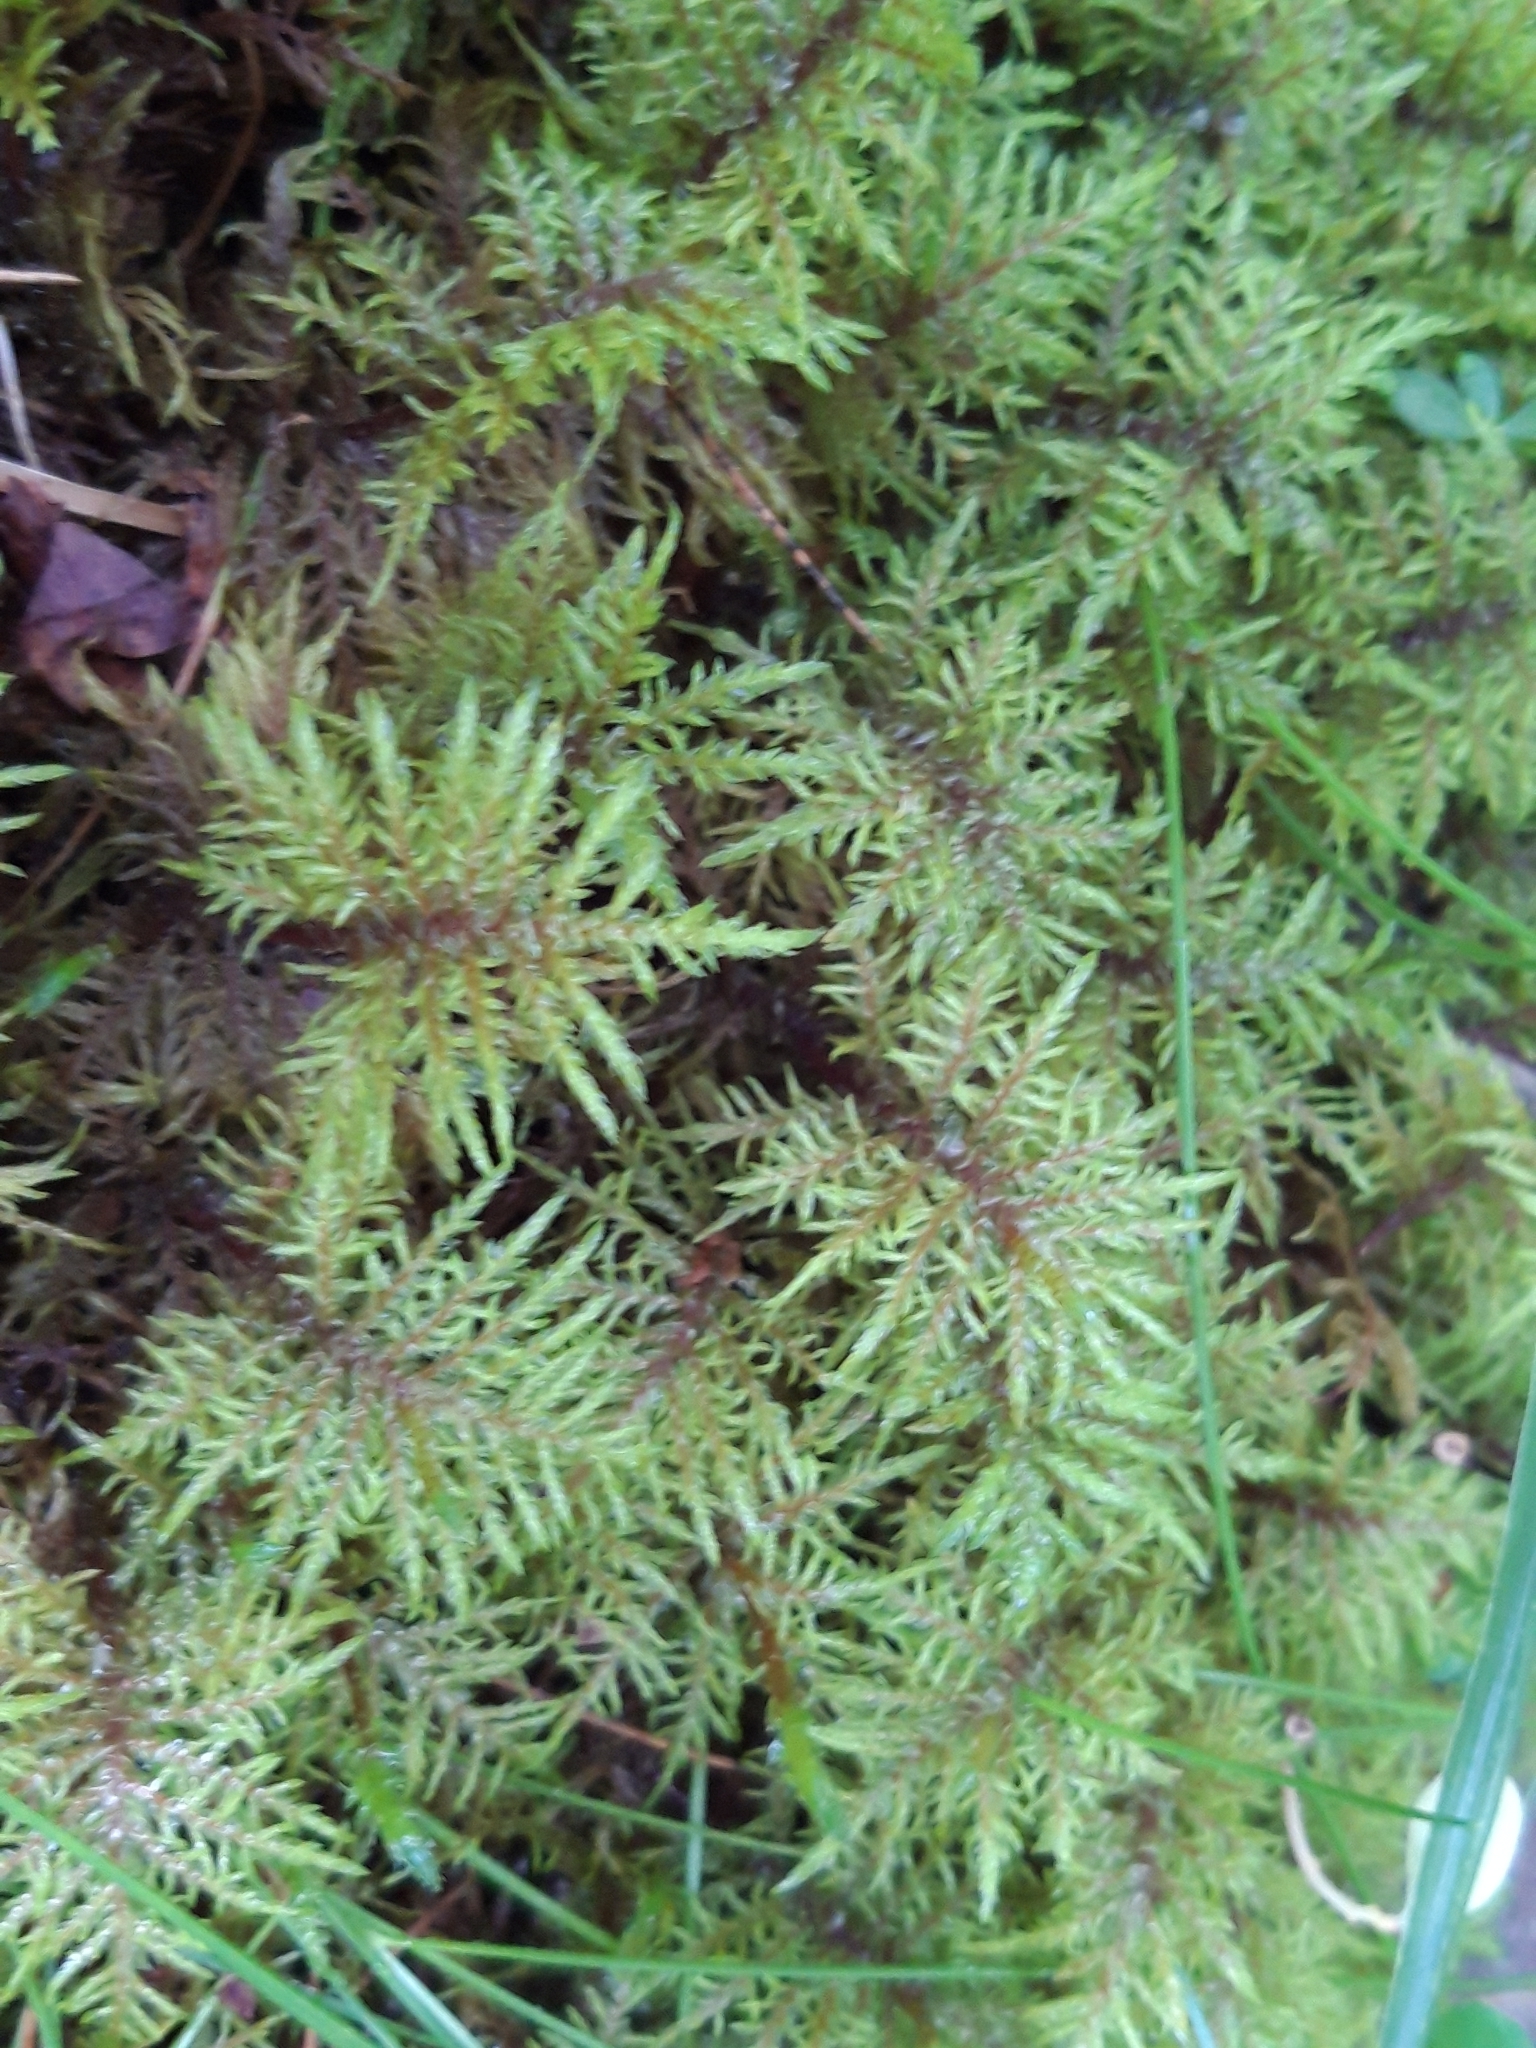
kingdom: Plantae
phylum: Bryophyta
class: Bryopsida
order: Hypnales
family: Hylocomiaceae
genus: Hylocomium
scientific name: Hylocomium splendens
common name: Stairstep moss
